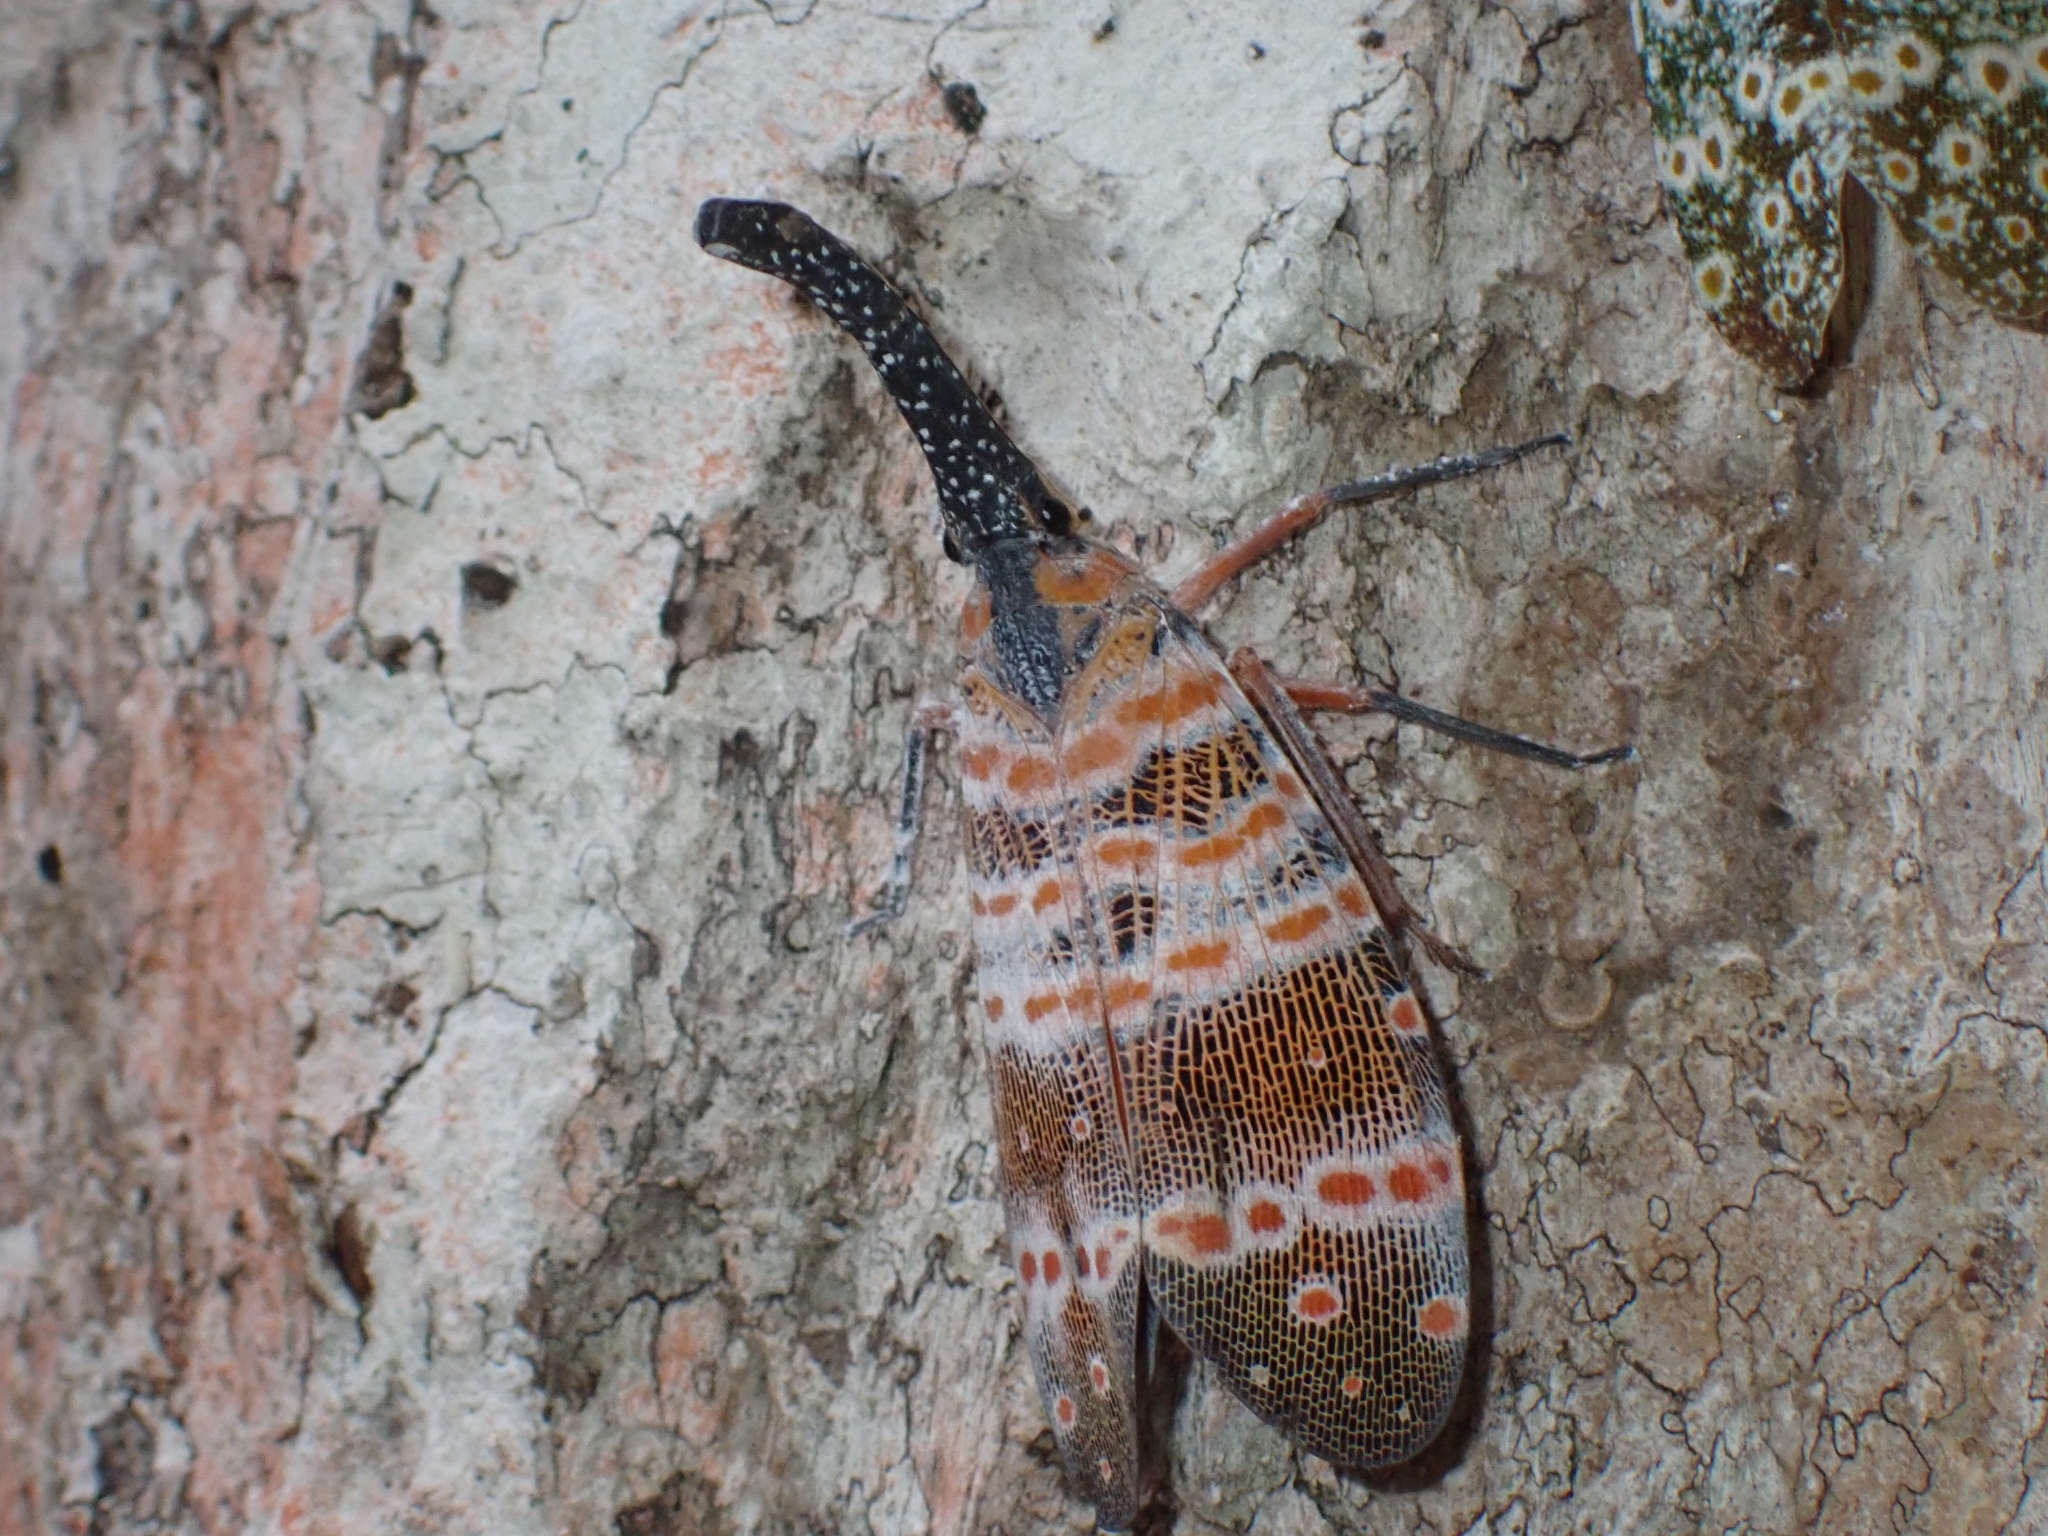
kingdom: Animalia
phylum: Arthropoda
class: Insecta
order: Hemiptera
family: Fulgoridae
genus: Pyrops
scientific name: Pyrops spinolae
